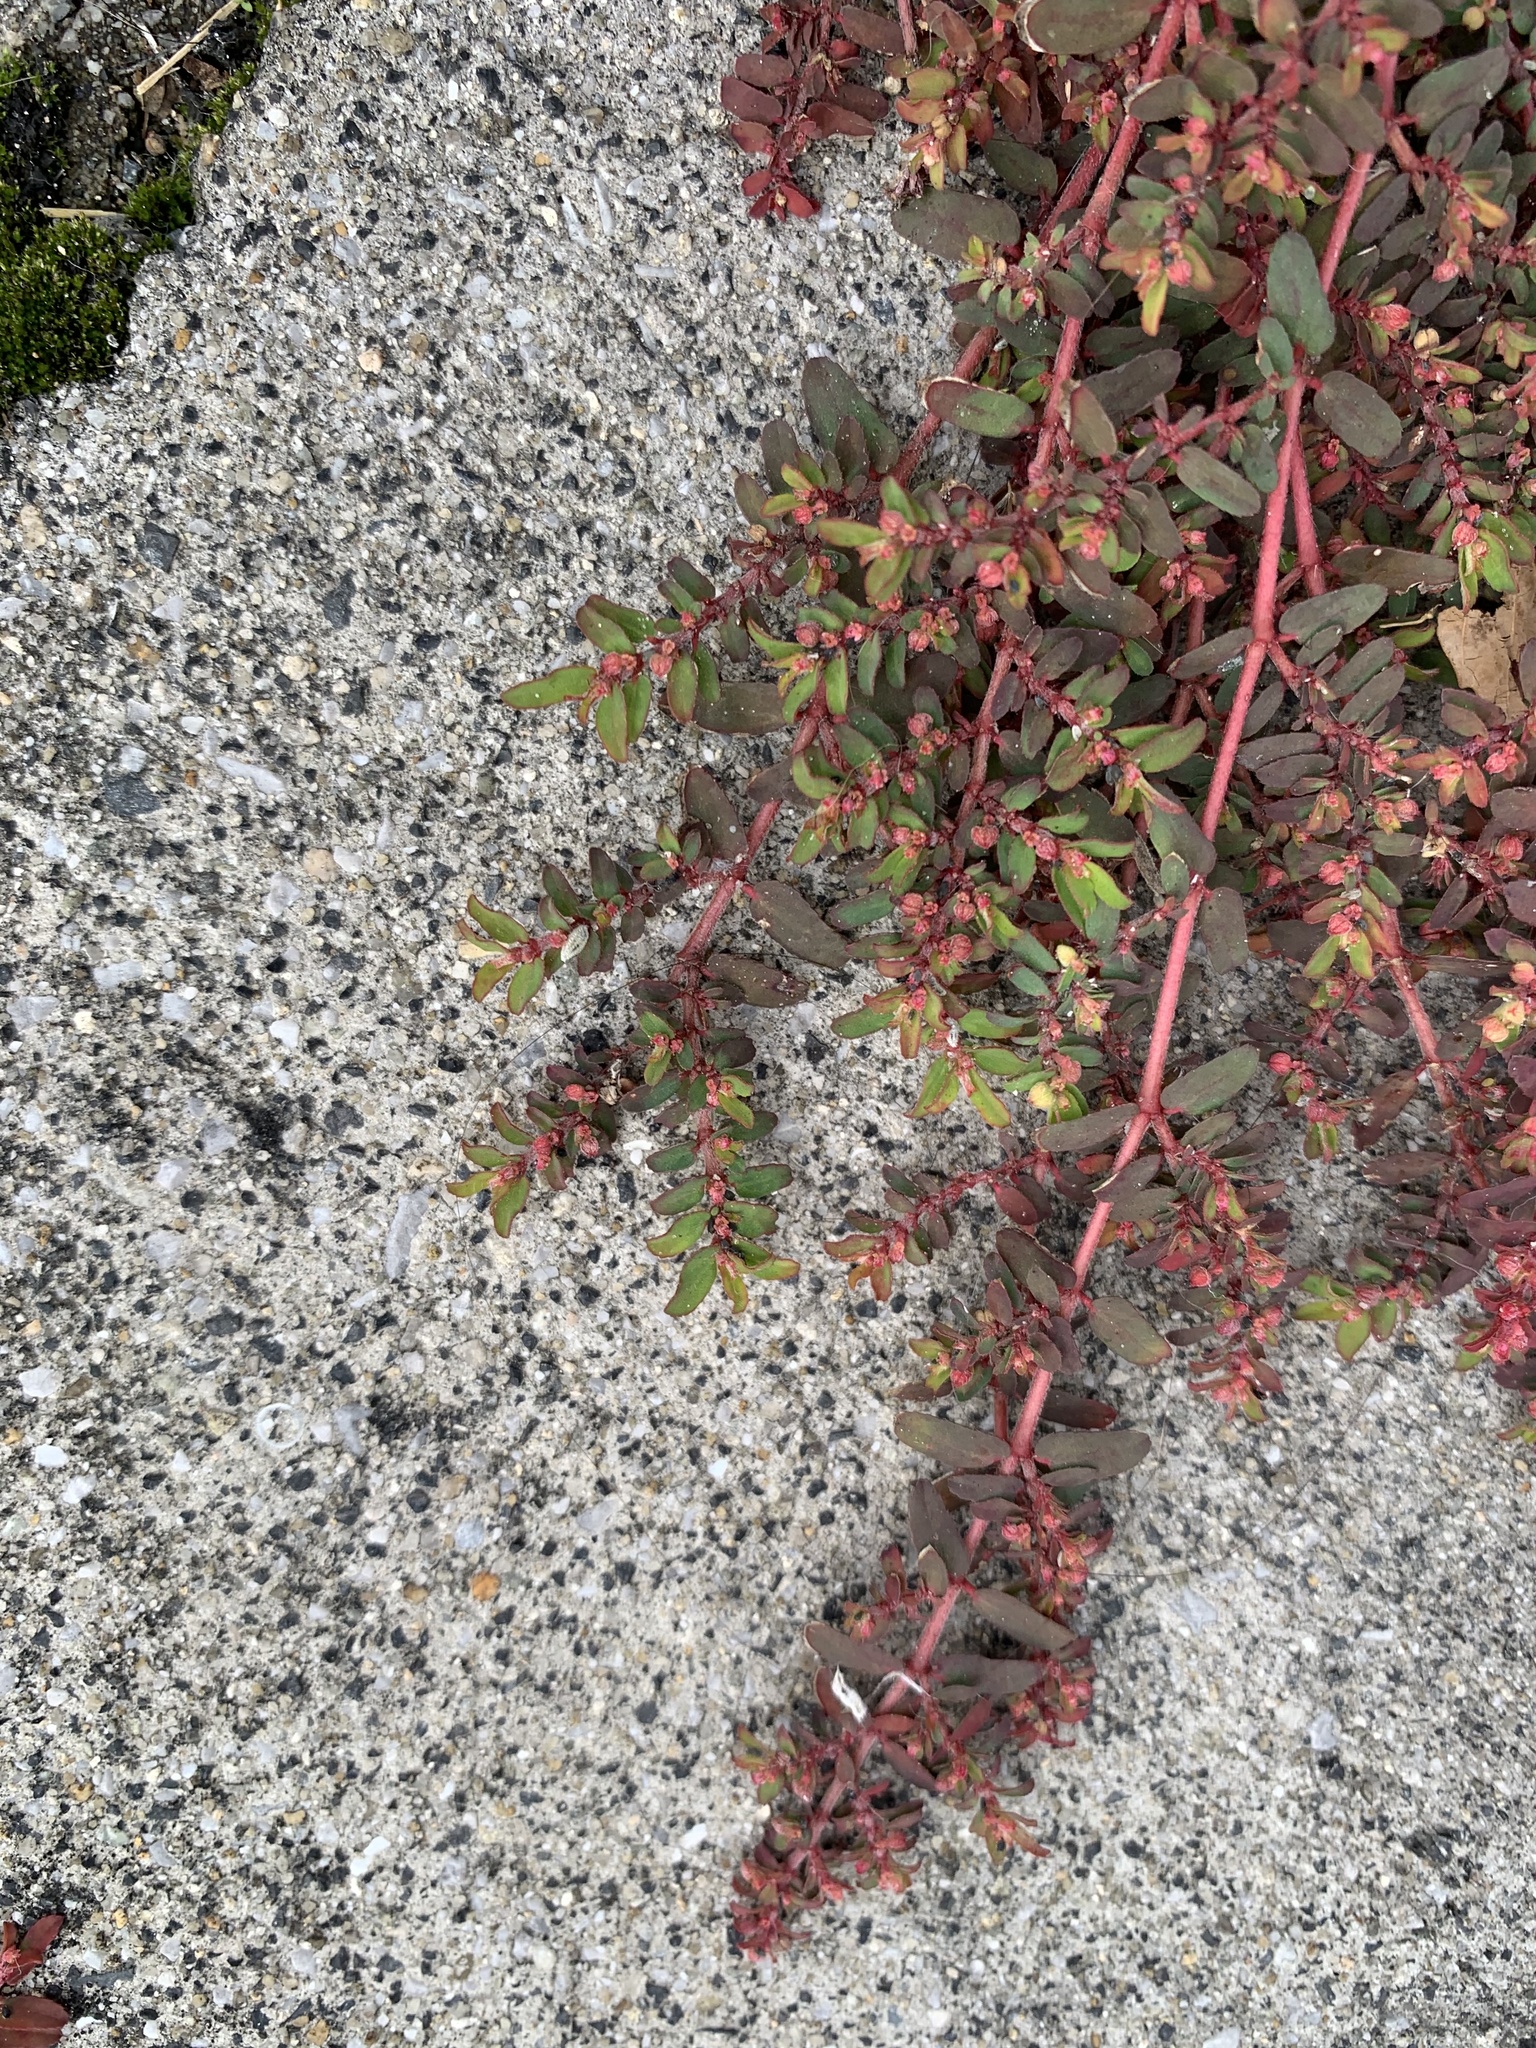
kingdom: Plantae
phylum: Tracheophyta
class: Magnoliopsida
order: Malpighiales
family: Euphorbiaceae
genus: Euphorbia
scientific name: Euphorbia maculata
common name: Spotted spurge
